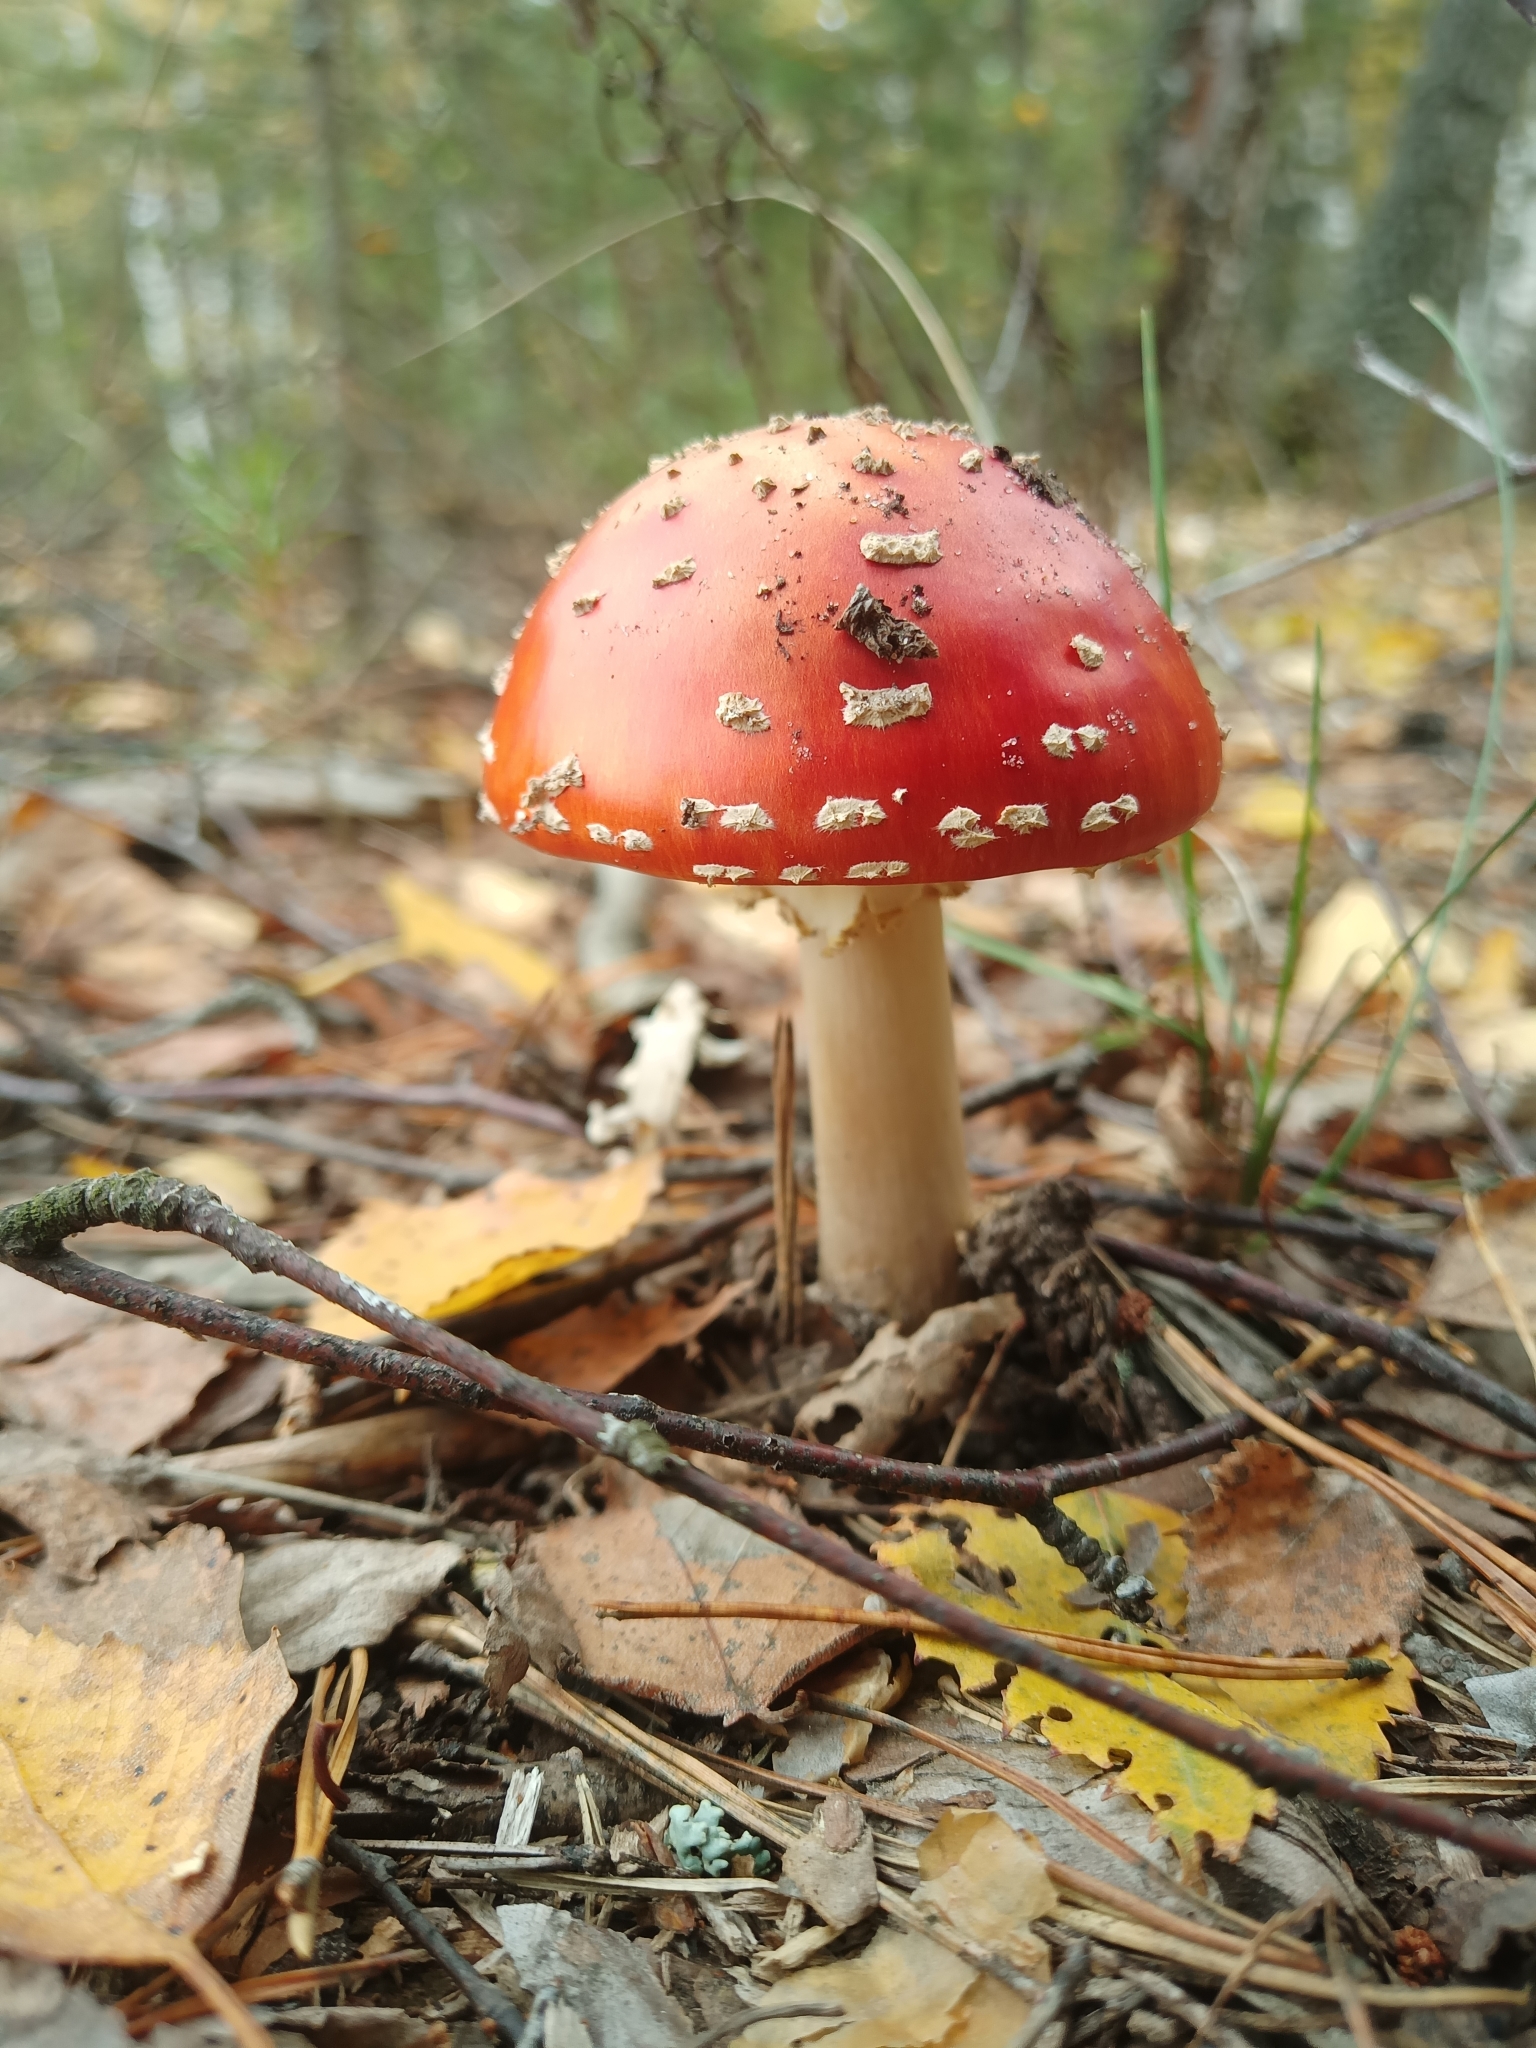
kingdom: Fungi
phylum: Basidiomycota
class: Agaricomycetes
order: Agaricales
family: Amanitaceae
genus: Amanita
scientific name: Amanita muscaria
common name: Fly agaric
